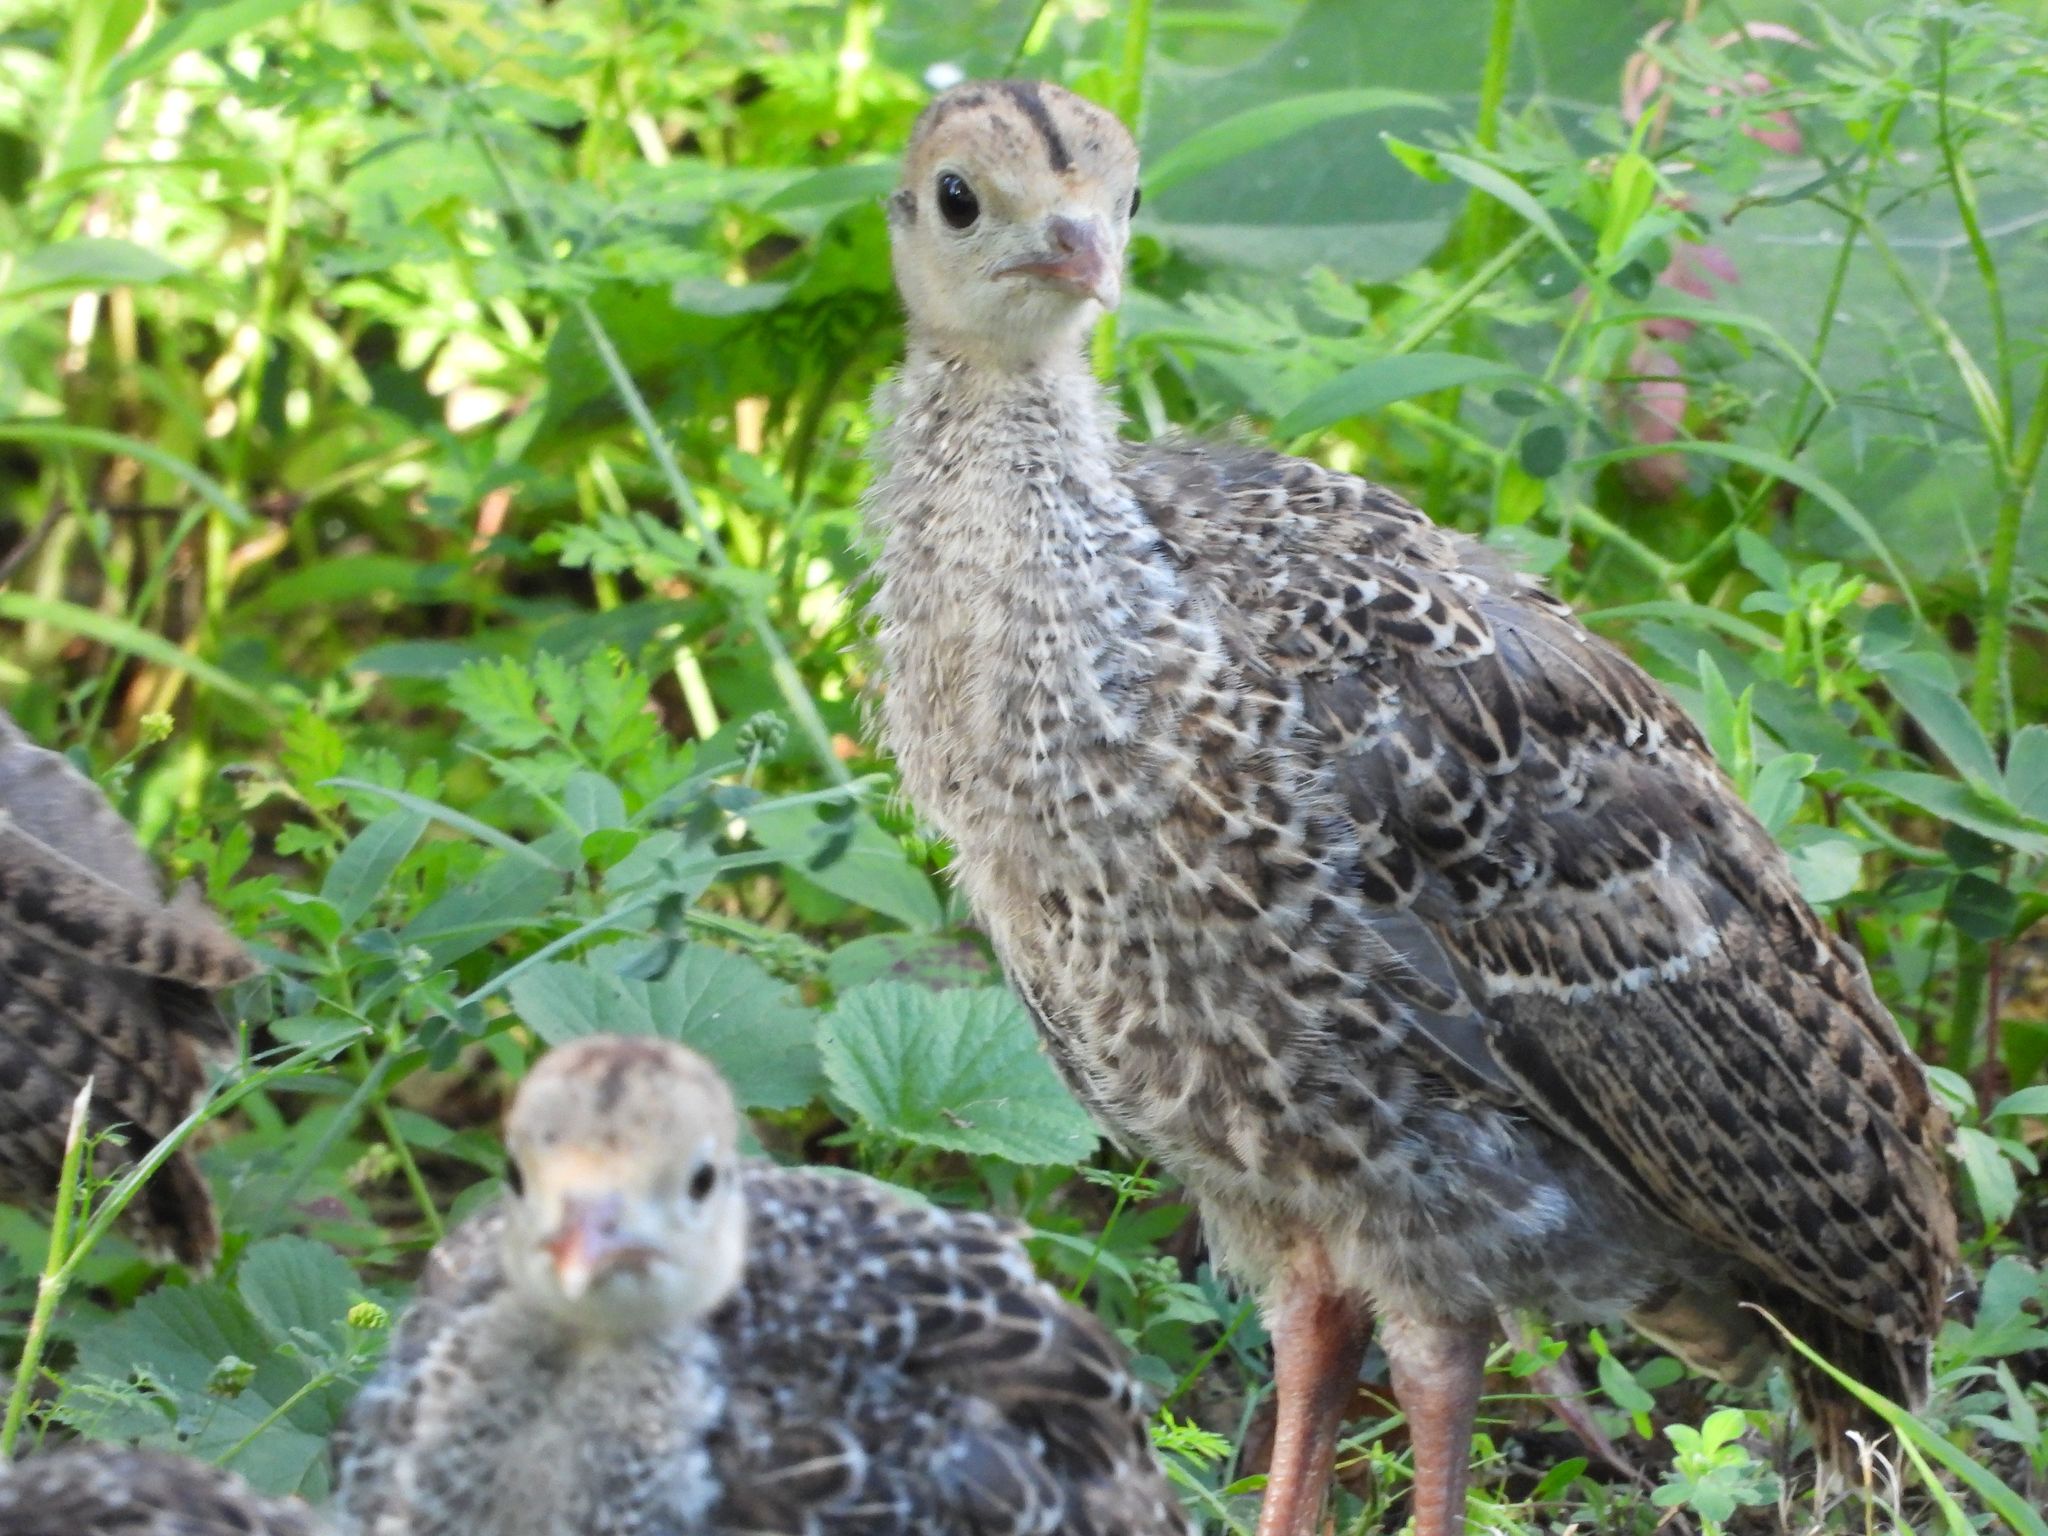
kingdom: Animalia
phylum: Chordata
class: Aves
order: Galliformes
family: Phasianidae
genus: Meleagris
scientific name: Meleagris gallopavo
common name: Wild turkey
